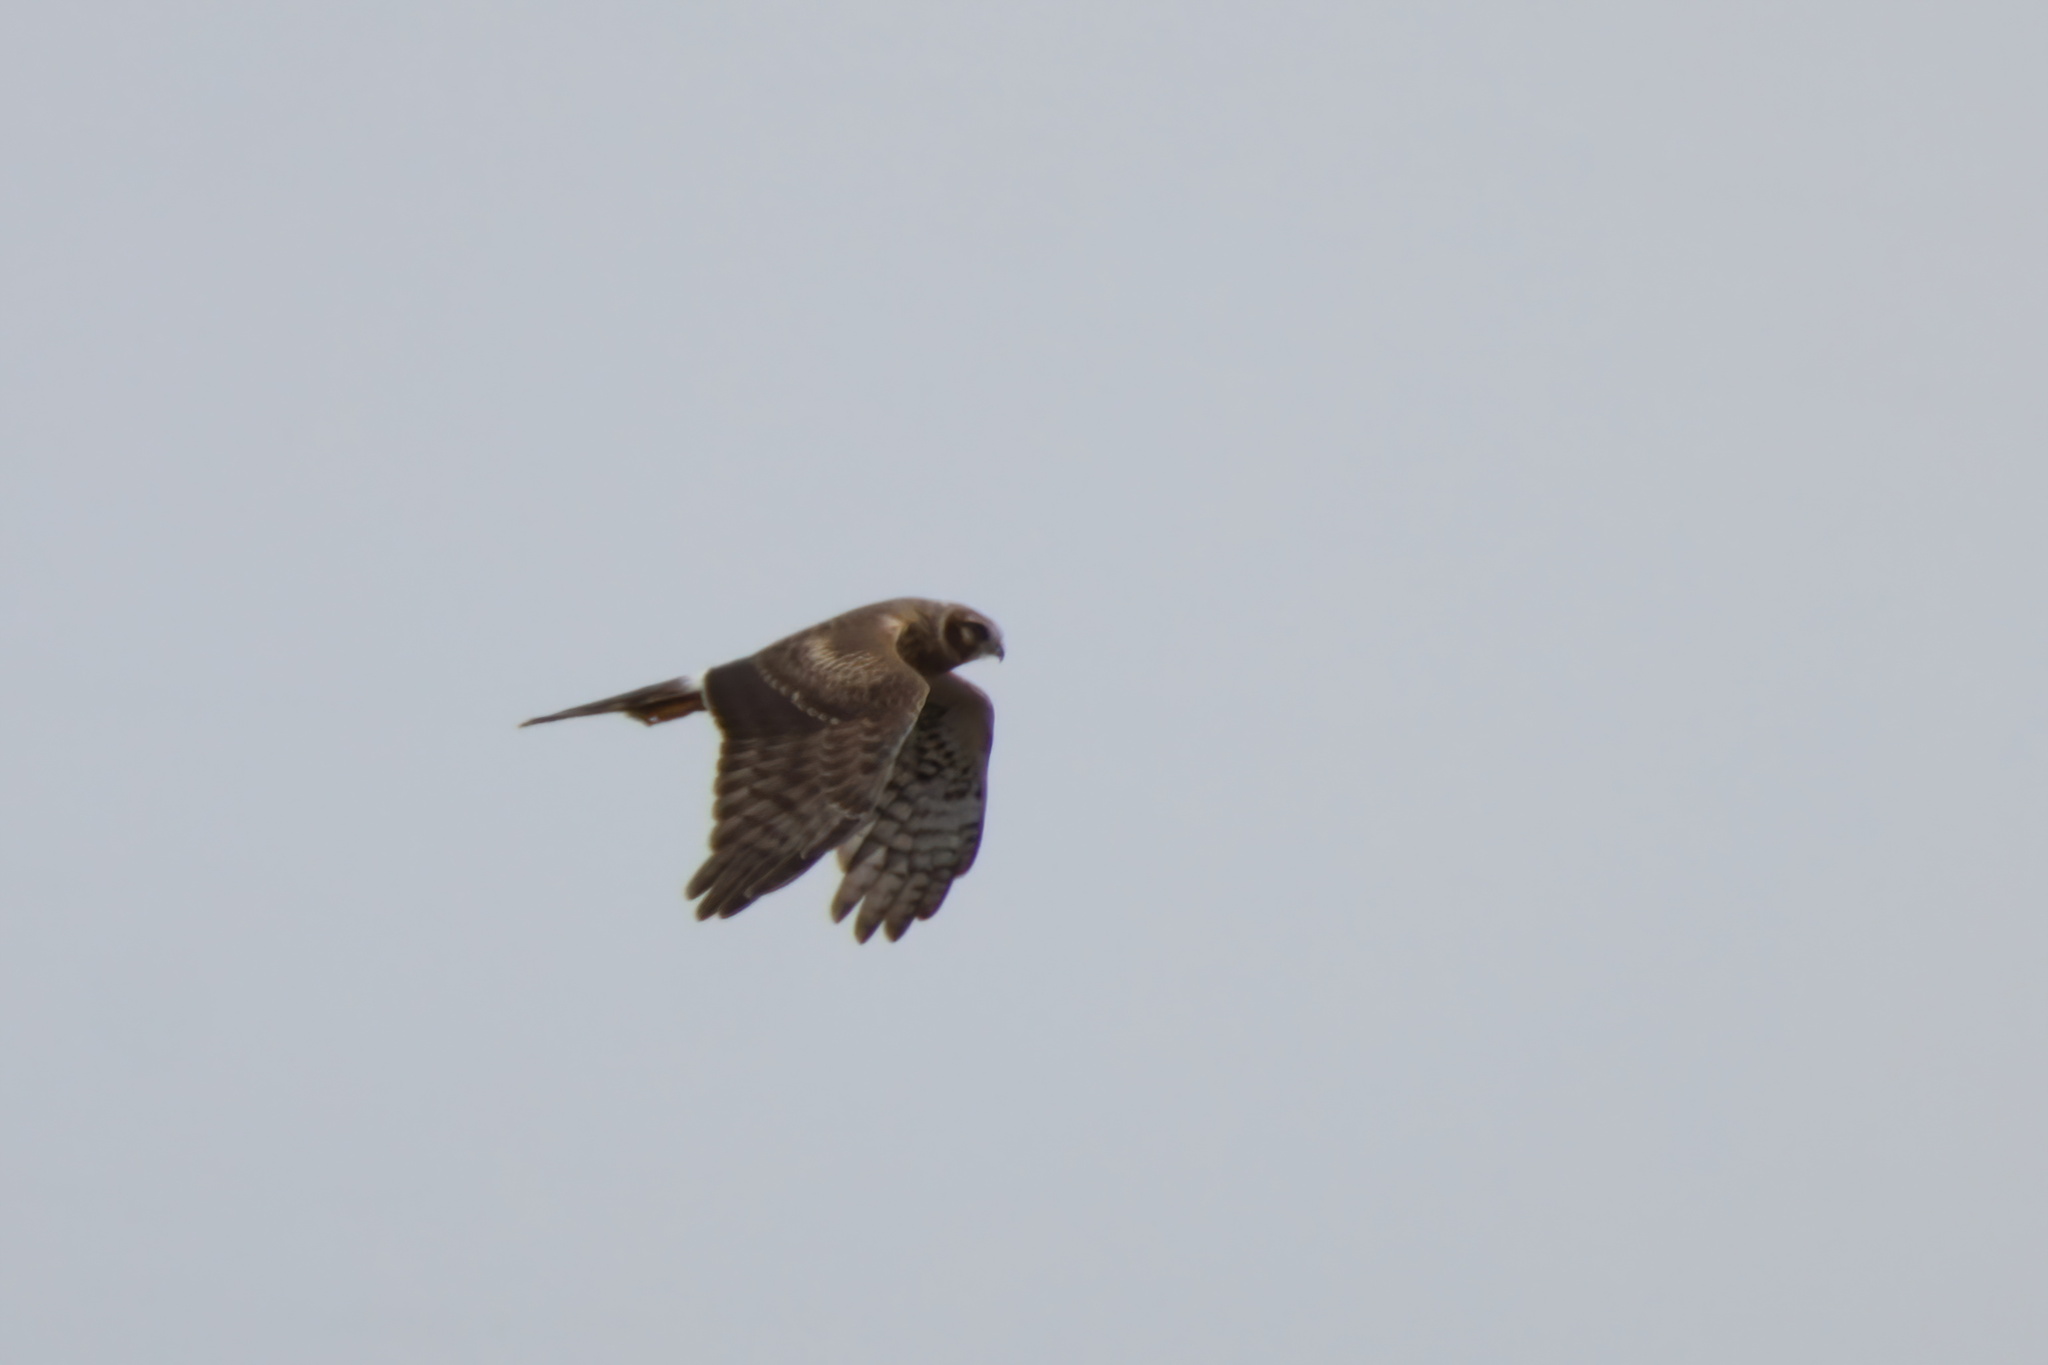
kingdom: Animalia
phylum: Chordata
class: Aves
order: Accipitriformes
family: Accipitridae
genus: Circus
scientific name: Circus cyaneus
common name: Hen harrier
